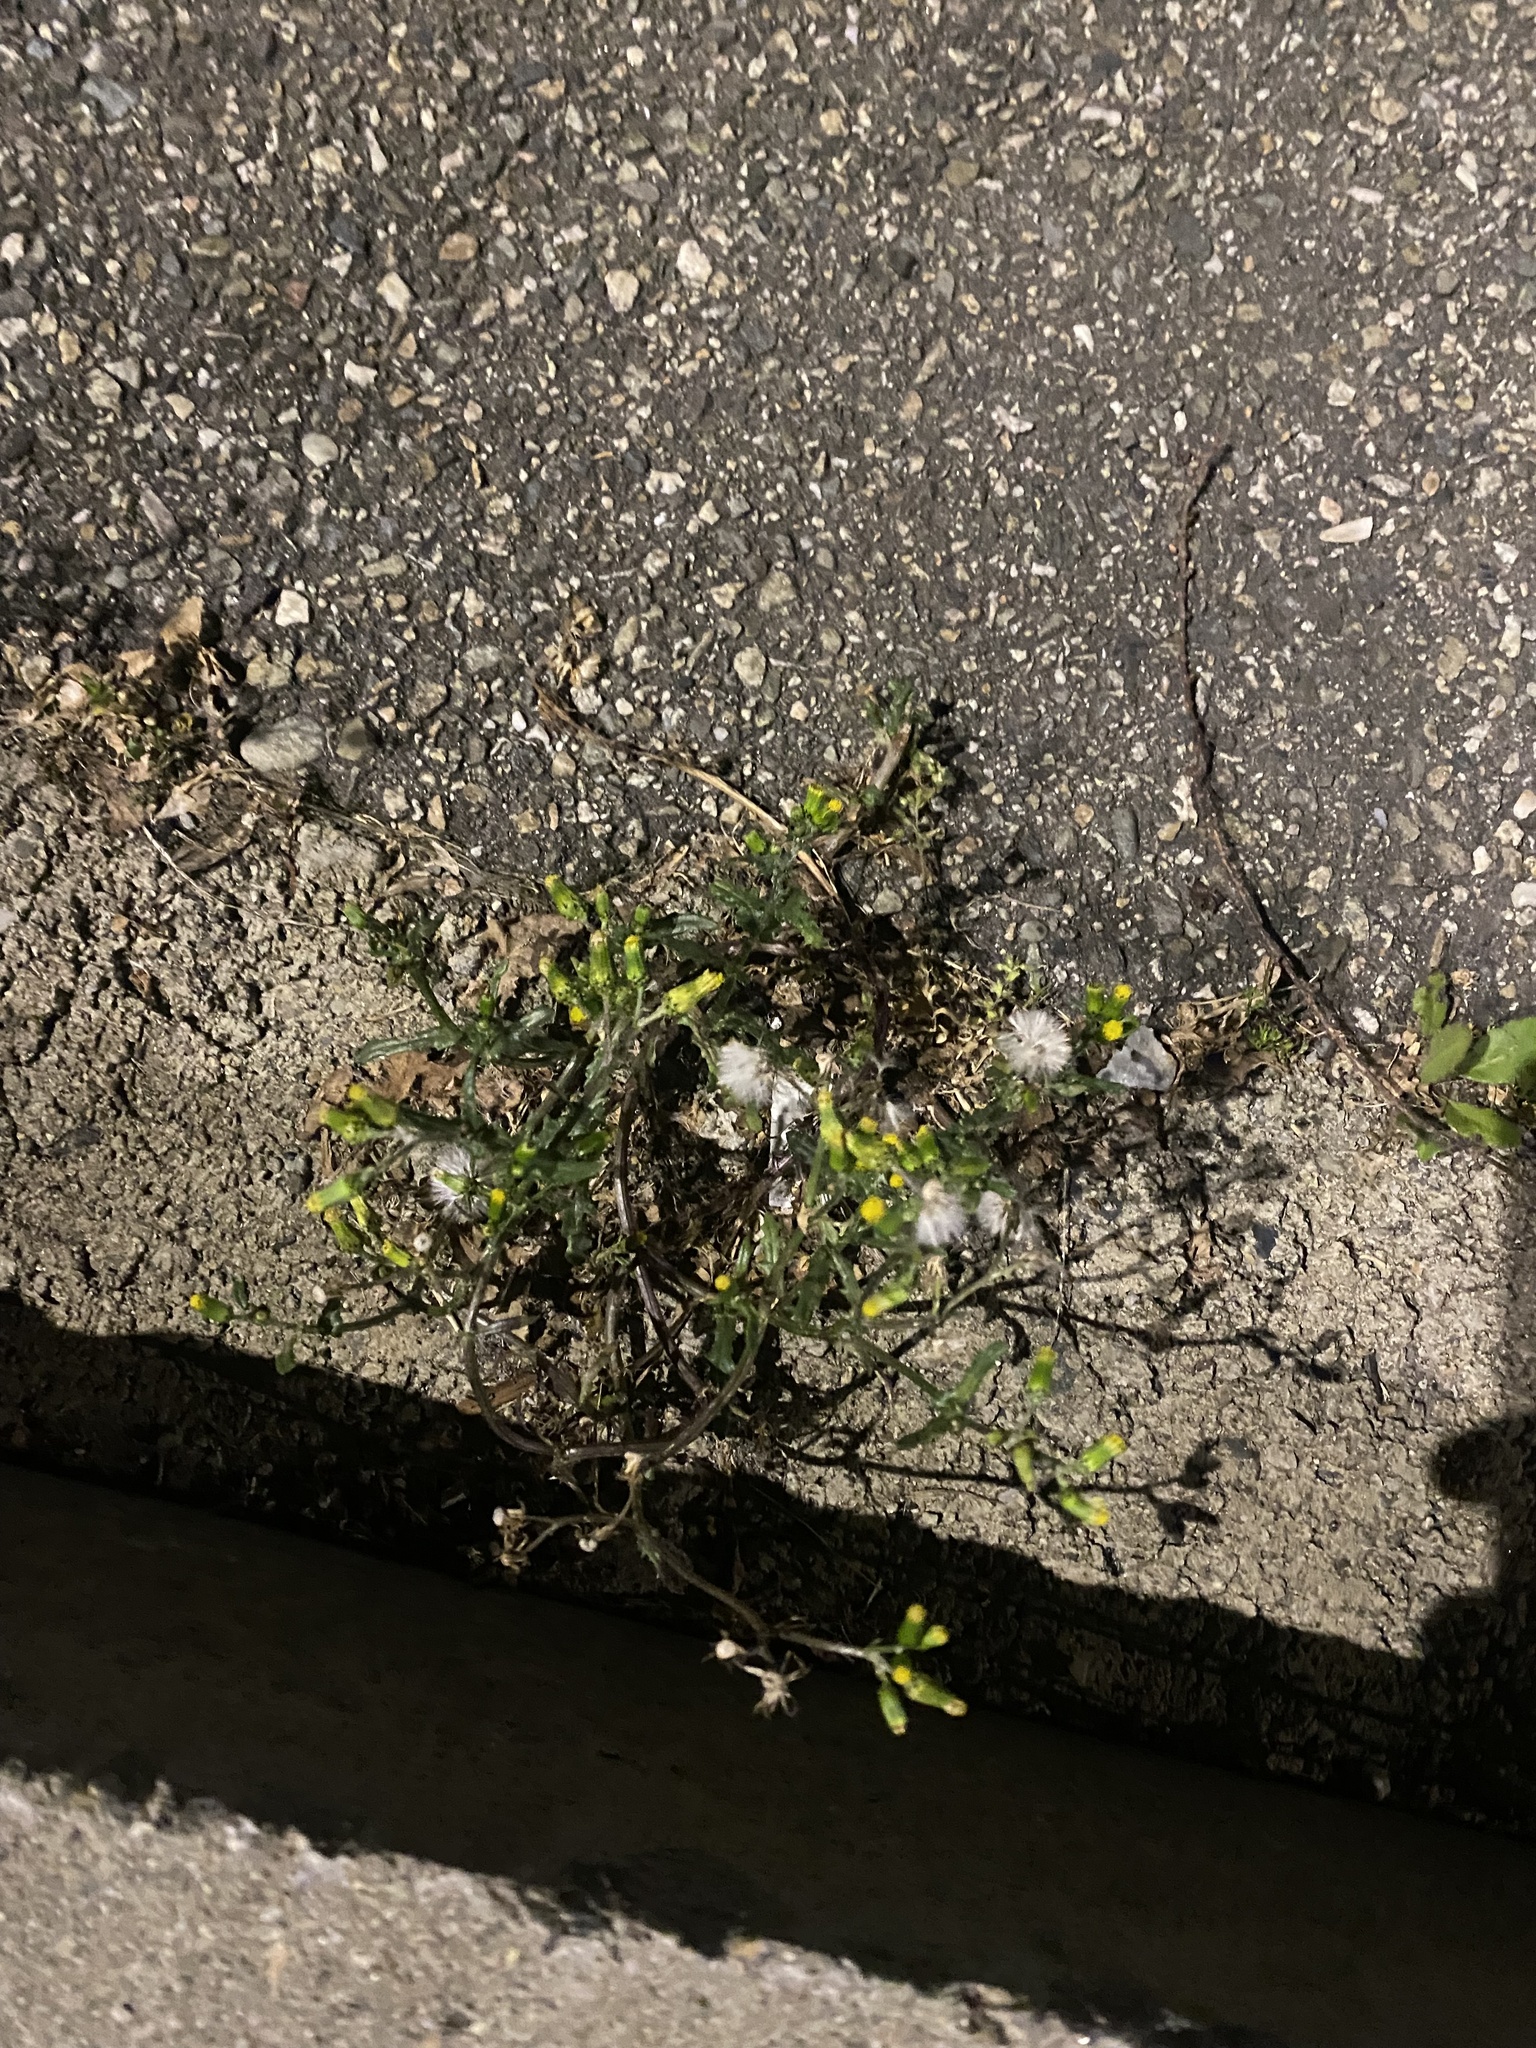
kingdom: Plantae
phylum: Tracheophyta
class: Magnoliopsida
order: Asterales
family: Asteraceae
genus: Senecio
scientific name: Senecio vulgaris
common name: Old-man-in-the-spring
